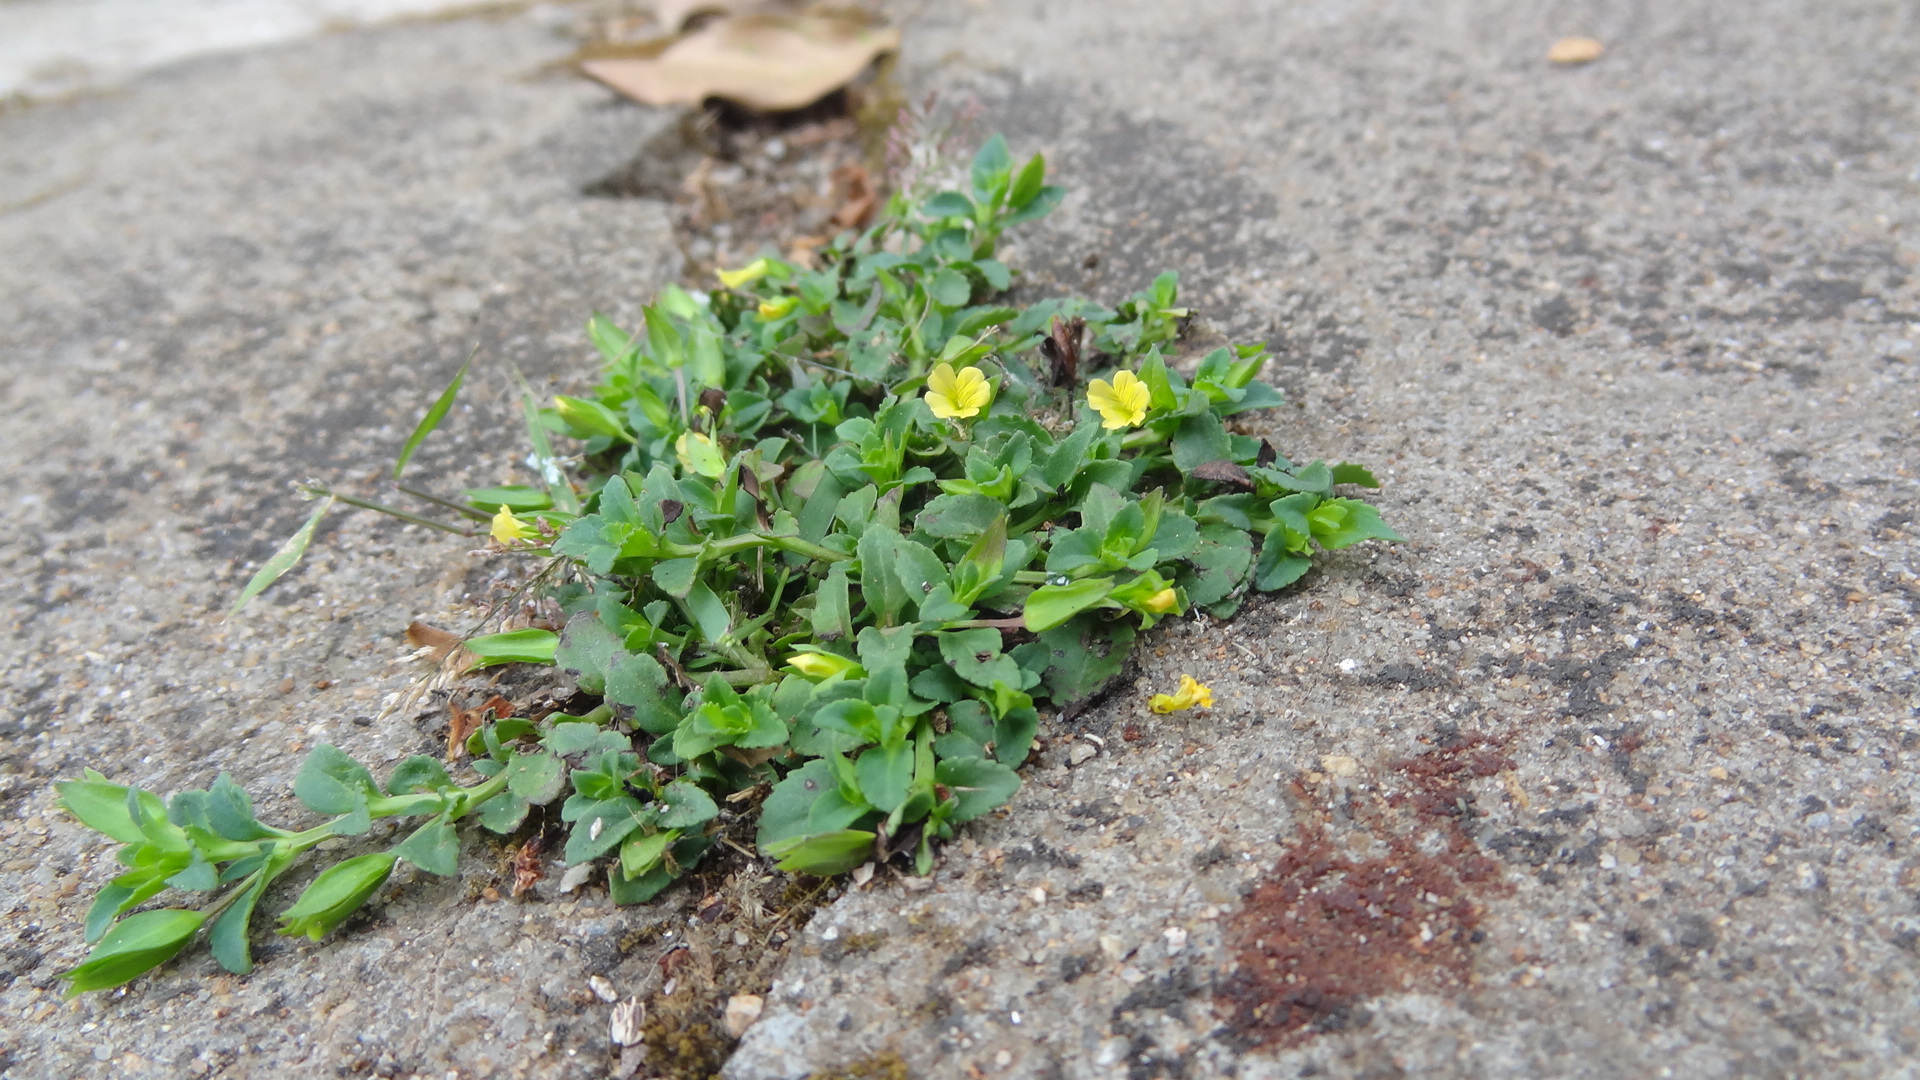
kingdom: Plantae
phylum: Tracheophyta
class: Magnoliopsida
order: Lamiales
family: Plantaginaceae
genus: Mecardonia
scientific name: Mecardonia procumbens
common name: Baby jump-up
